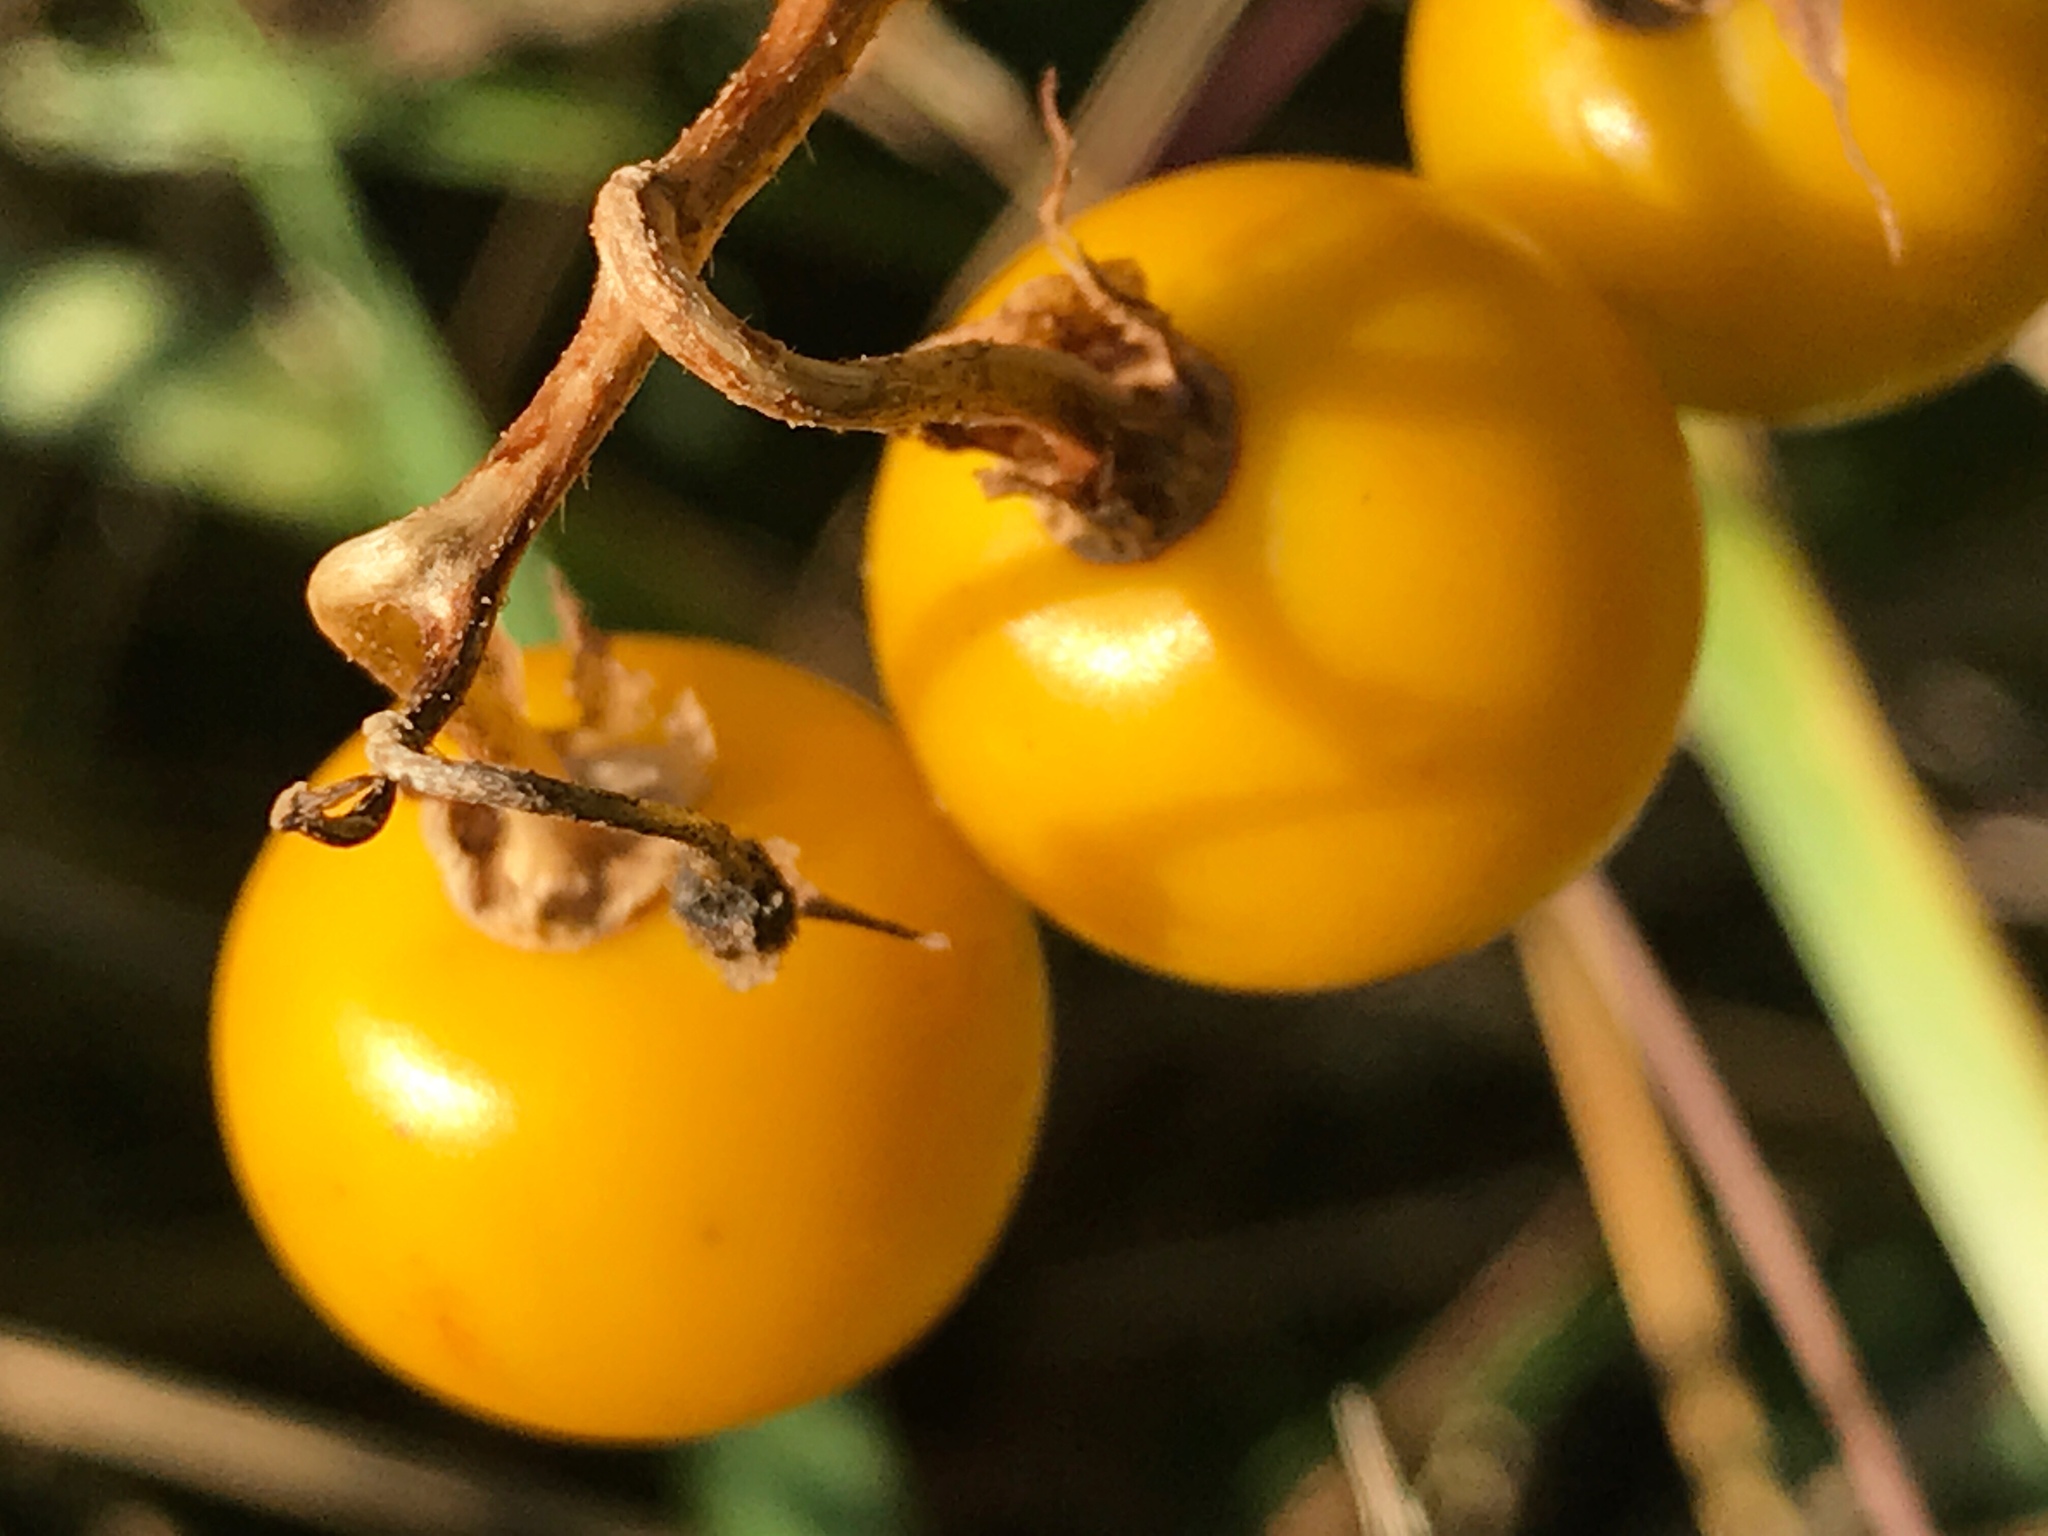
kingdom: Plantae
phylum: Tracheophyta
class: Magnoliopsida
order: Solanales
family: Solanaceae
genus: Solanum
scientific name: Solanum carolinense
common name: Horse-nettle
